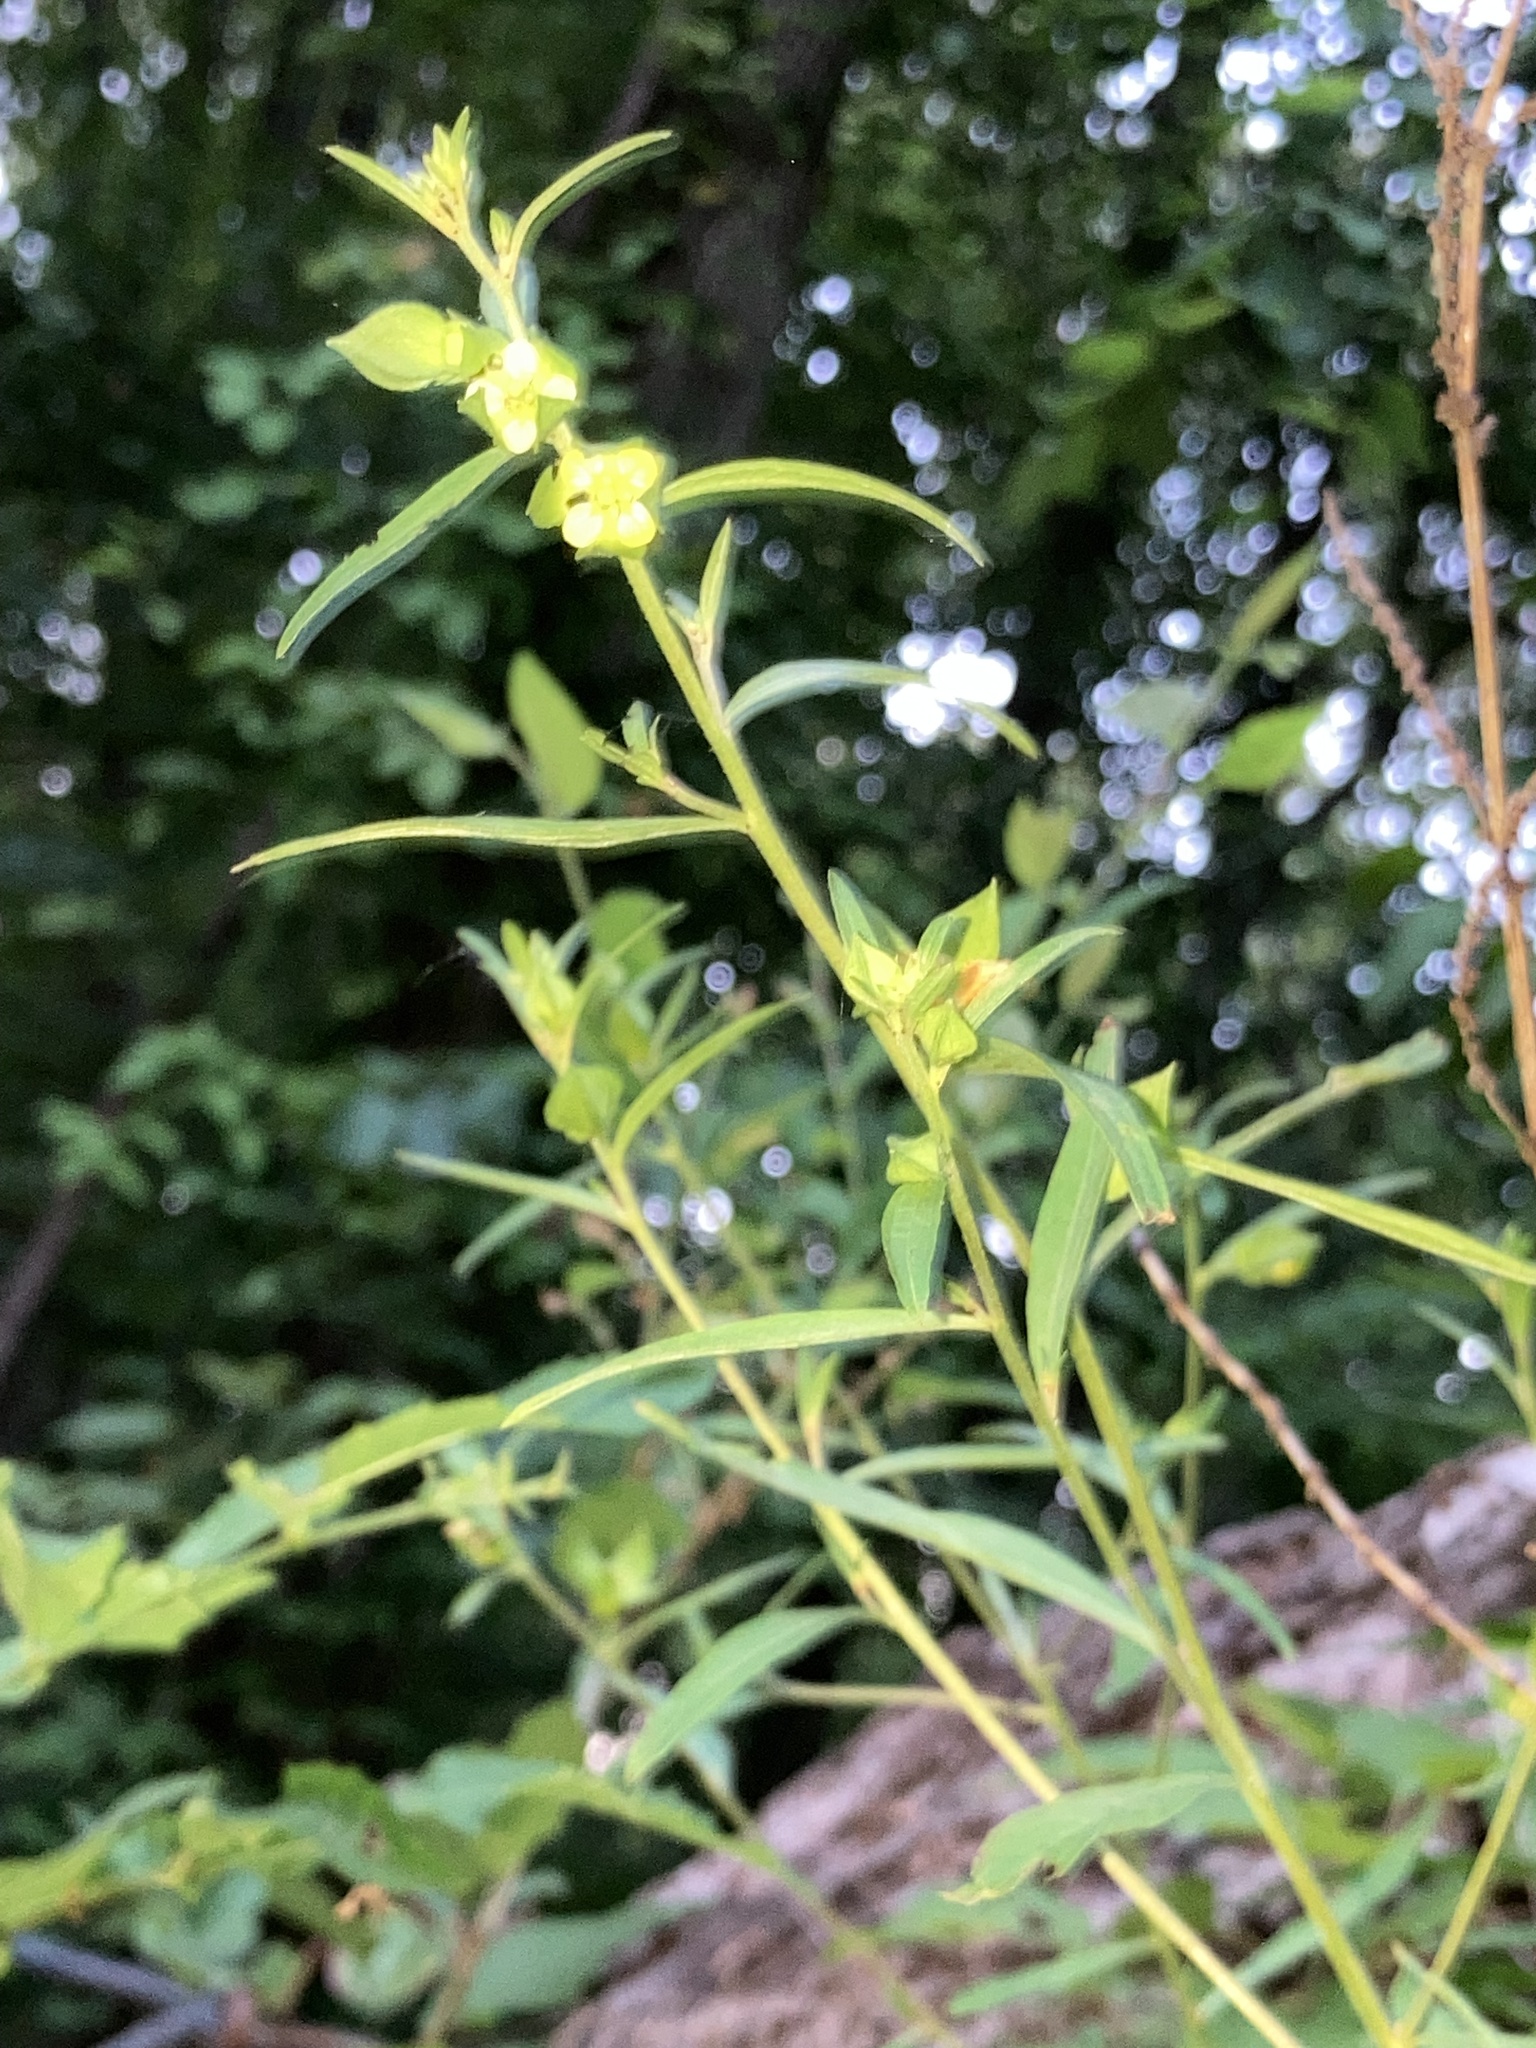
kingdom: Plantae
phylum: Tracheophyta
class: Magnoliopsida
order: Myrtales
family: Onagraceae
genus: Ludwigia
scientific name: Ludwigia alternifolia
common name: Rattlebox
